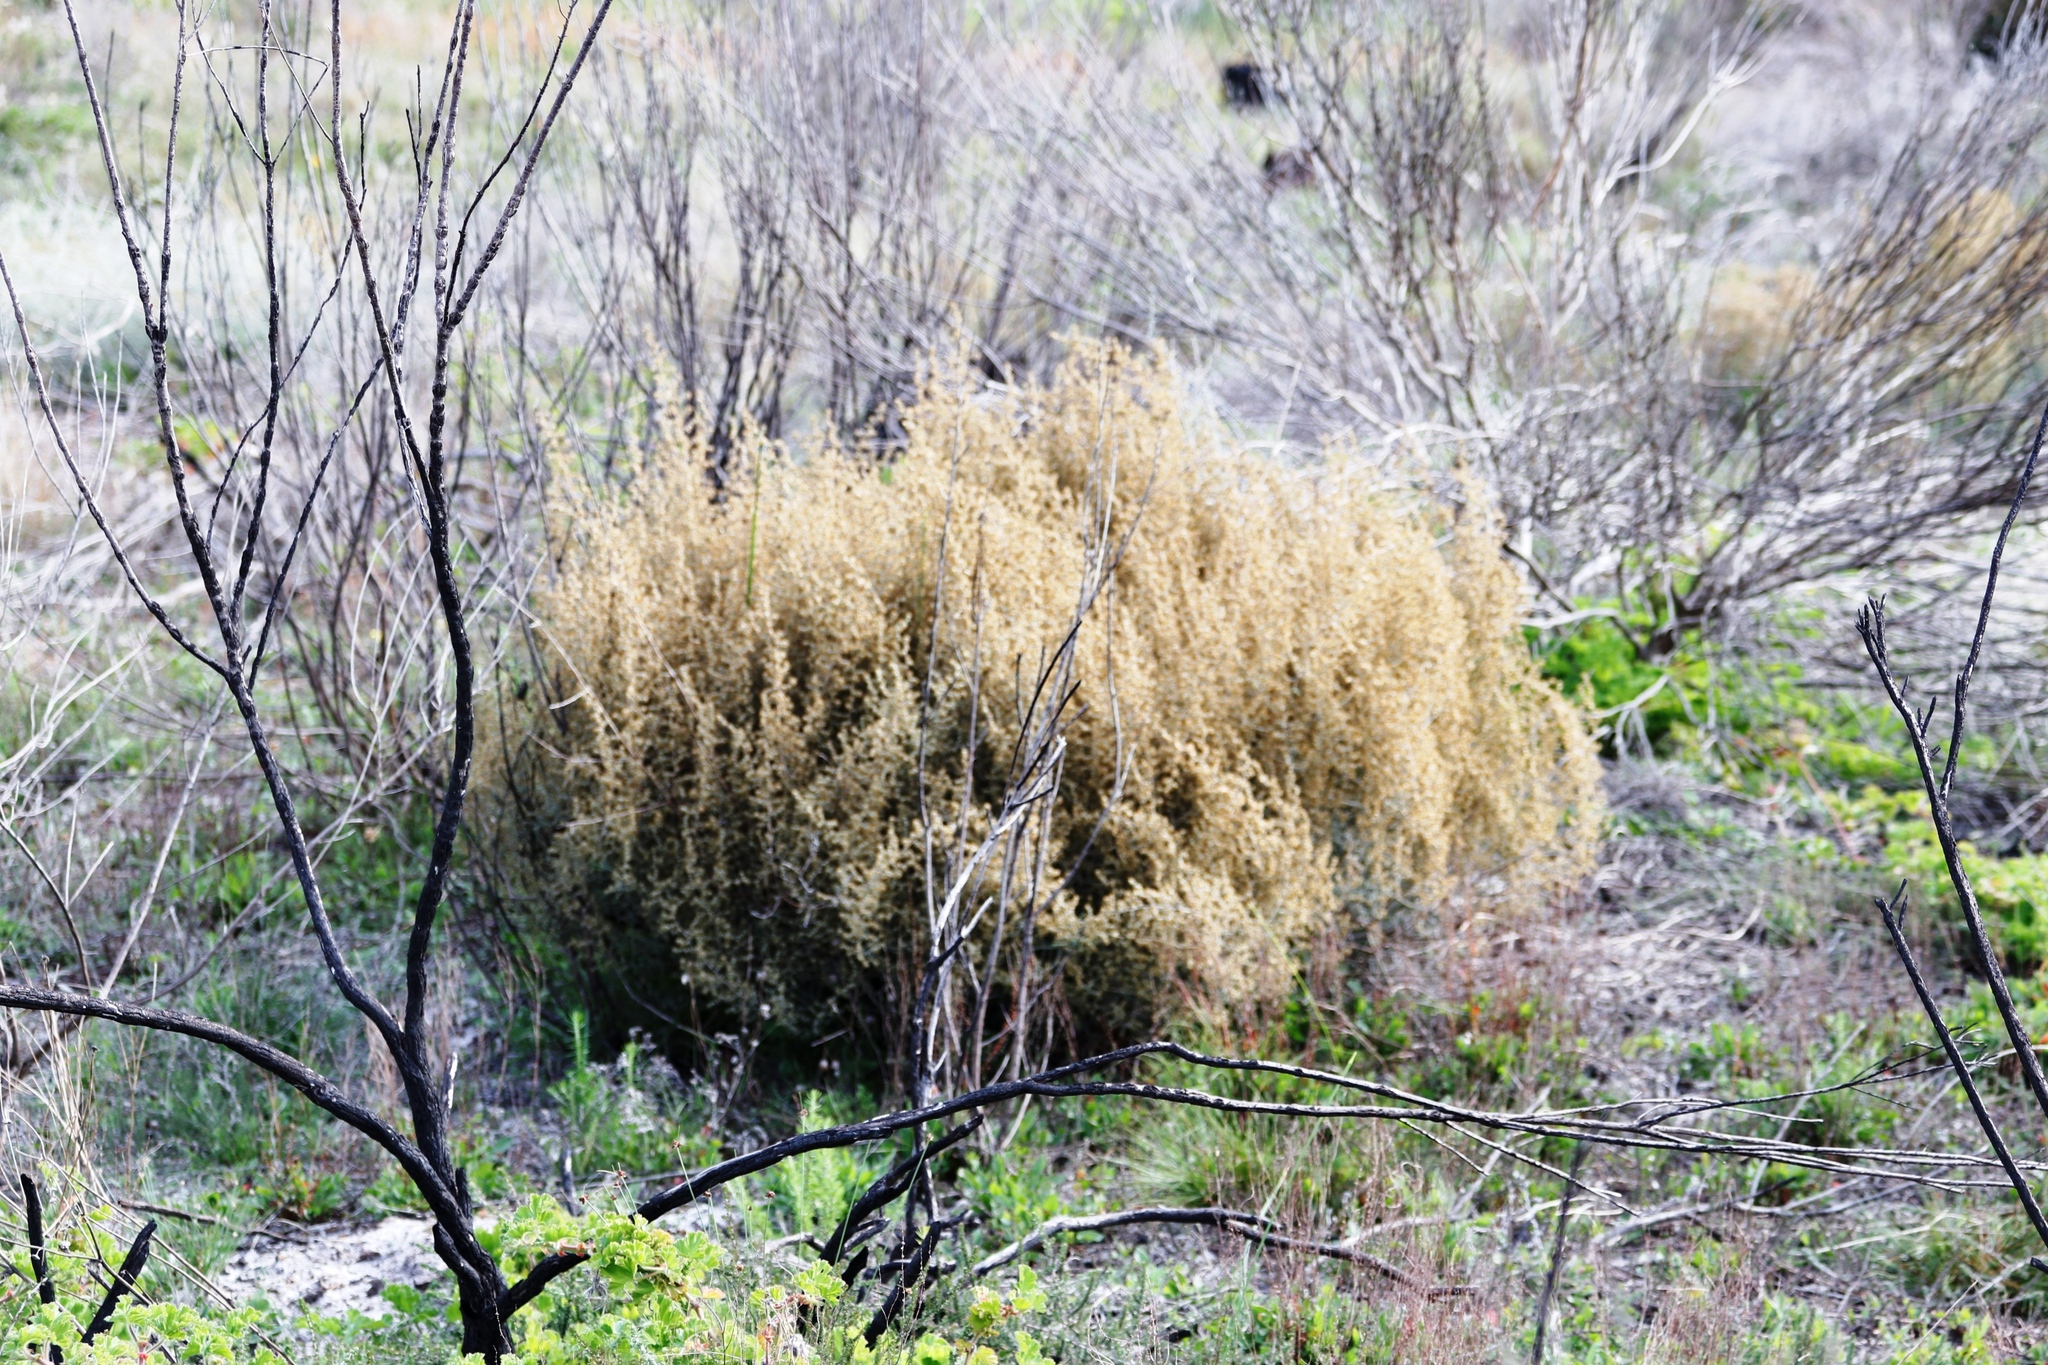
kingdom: Plantae
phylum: Tracheophyta
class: Magnoliopsida
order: Asterales
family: Asteraceae
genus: Seriphium
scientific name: Seriphium plumosum
